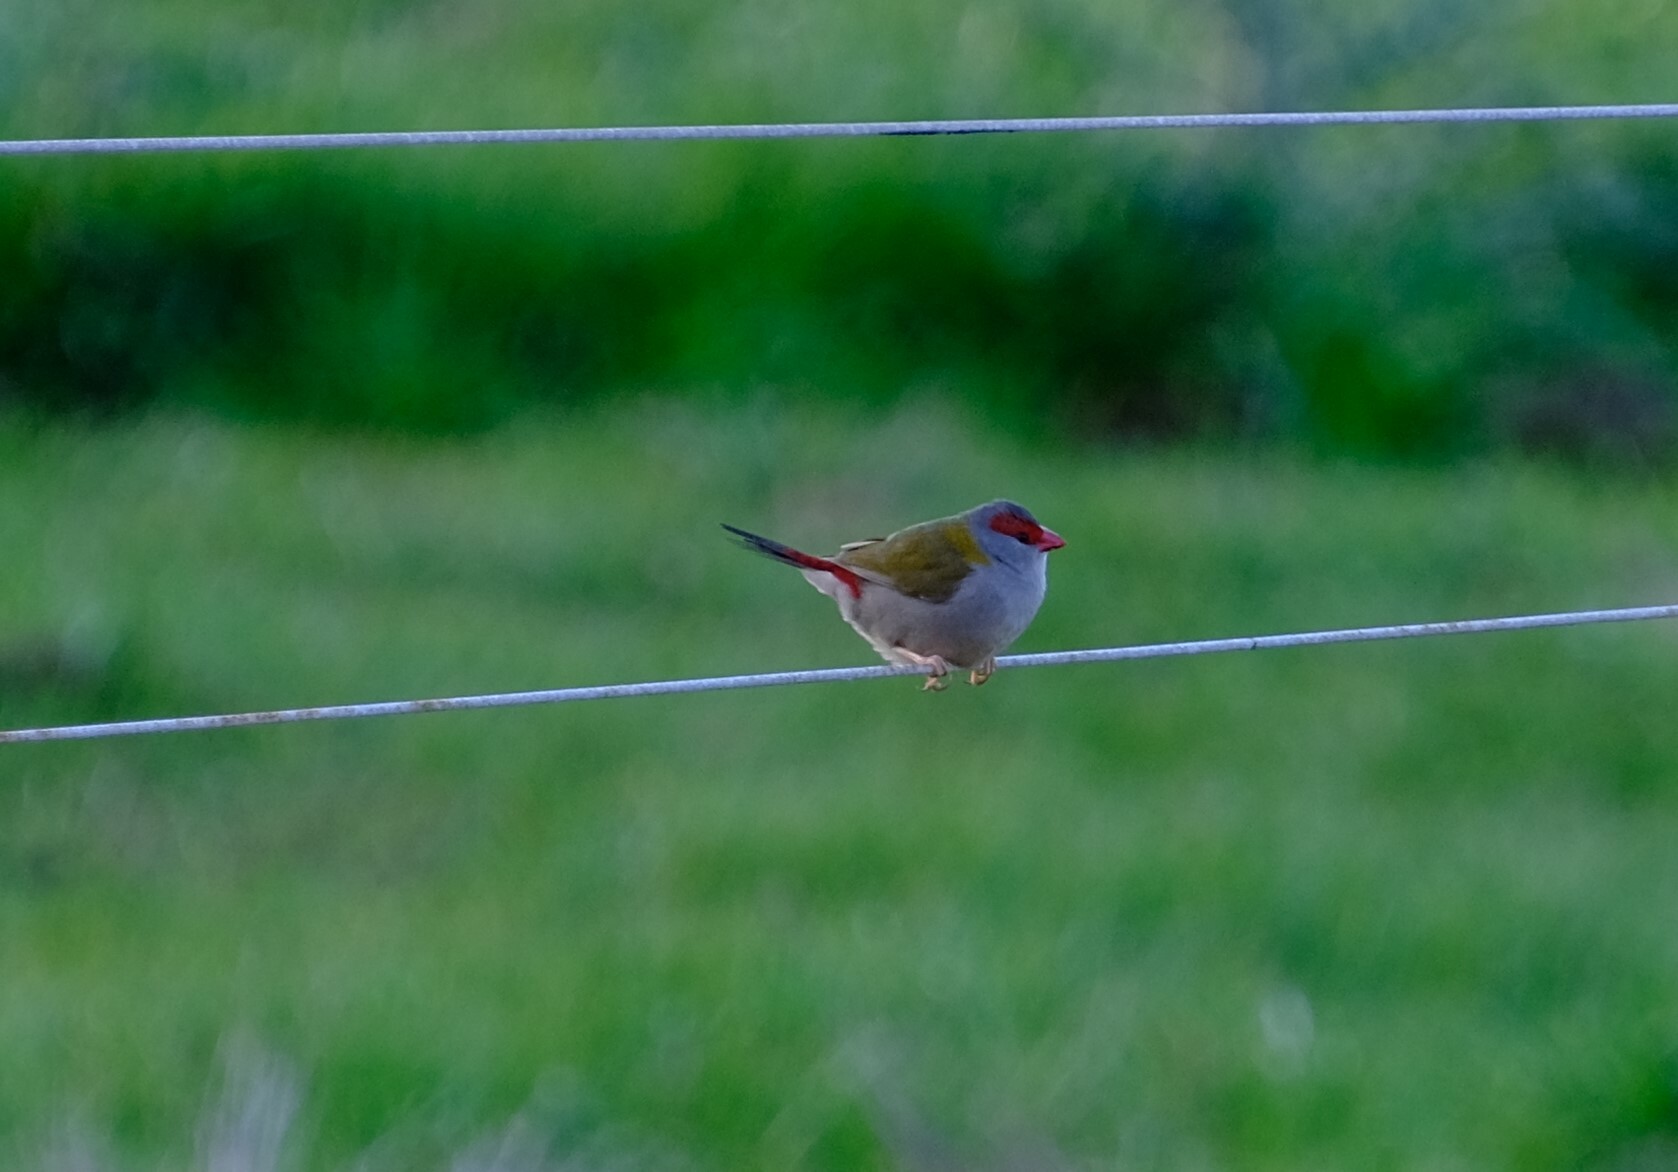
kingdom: Animalia
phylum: Chordata
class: Aves
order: Passeriformes
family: Estrildidae
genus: Neochmia
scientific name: Neochmia temporalis
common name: Red-browed finch
